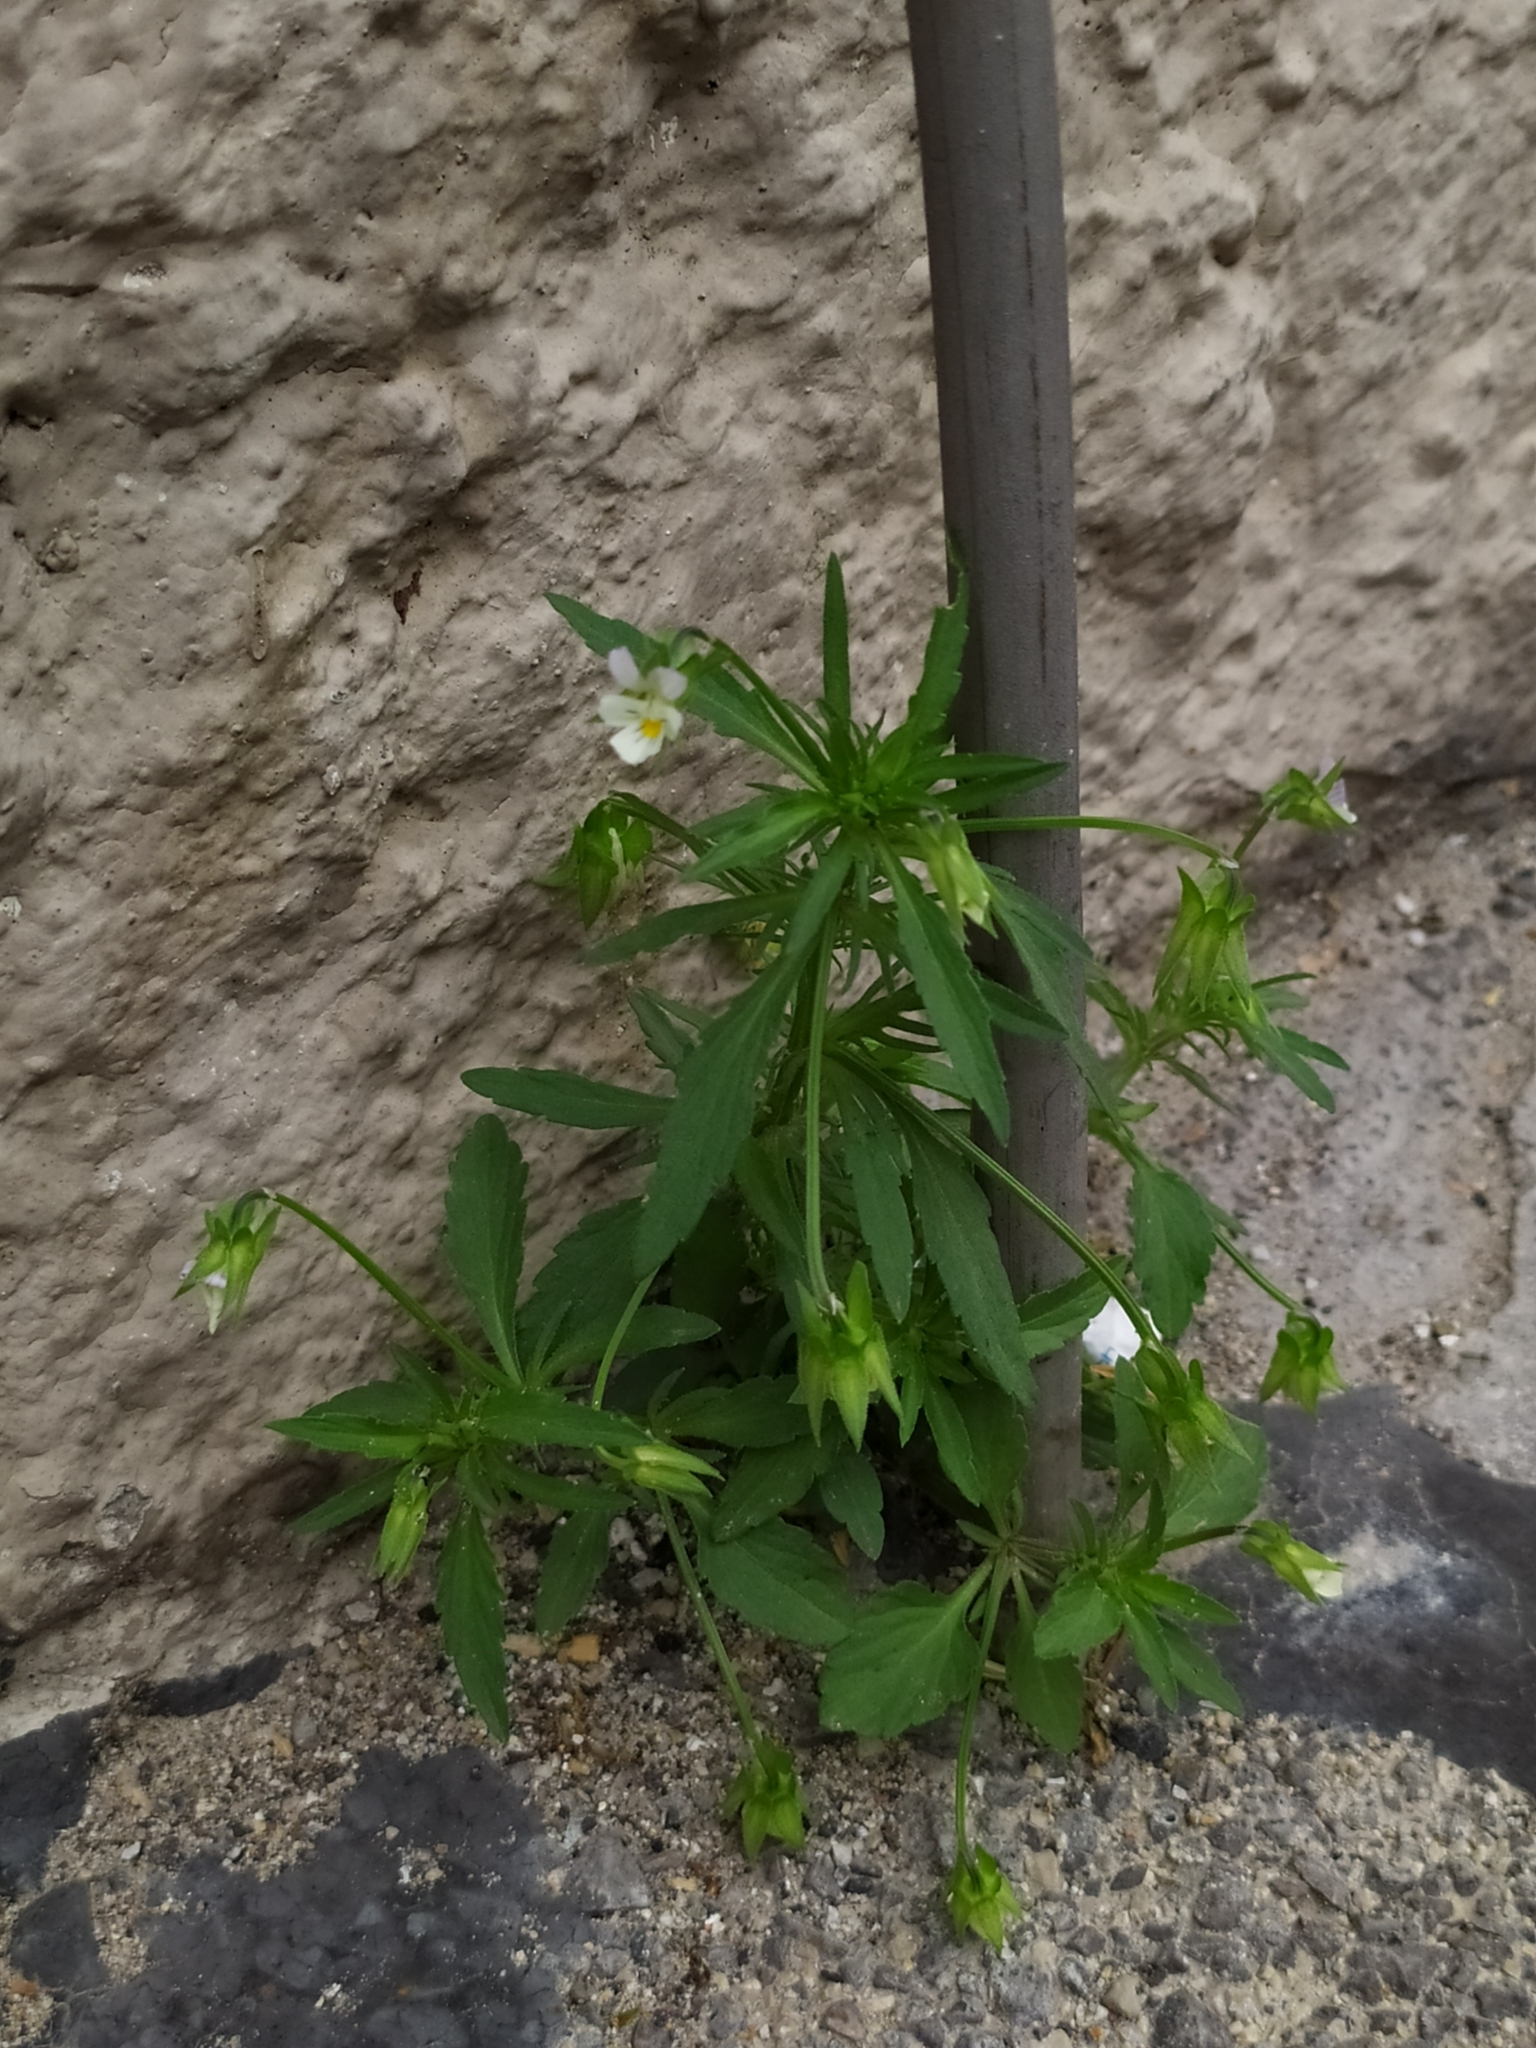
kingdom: Plantae
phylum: Tracheophyta
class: Magnoliopsida
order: Malpighiales
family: Violaceae
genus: Viola
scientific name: Viola arvensis
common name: Field pansy
